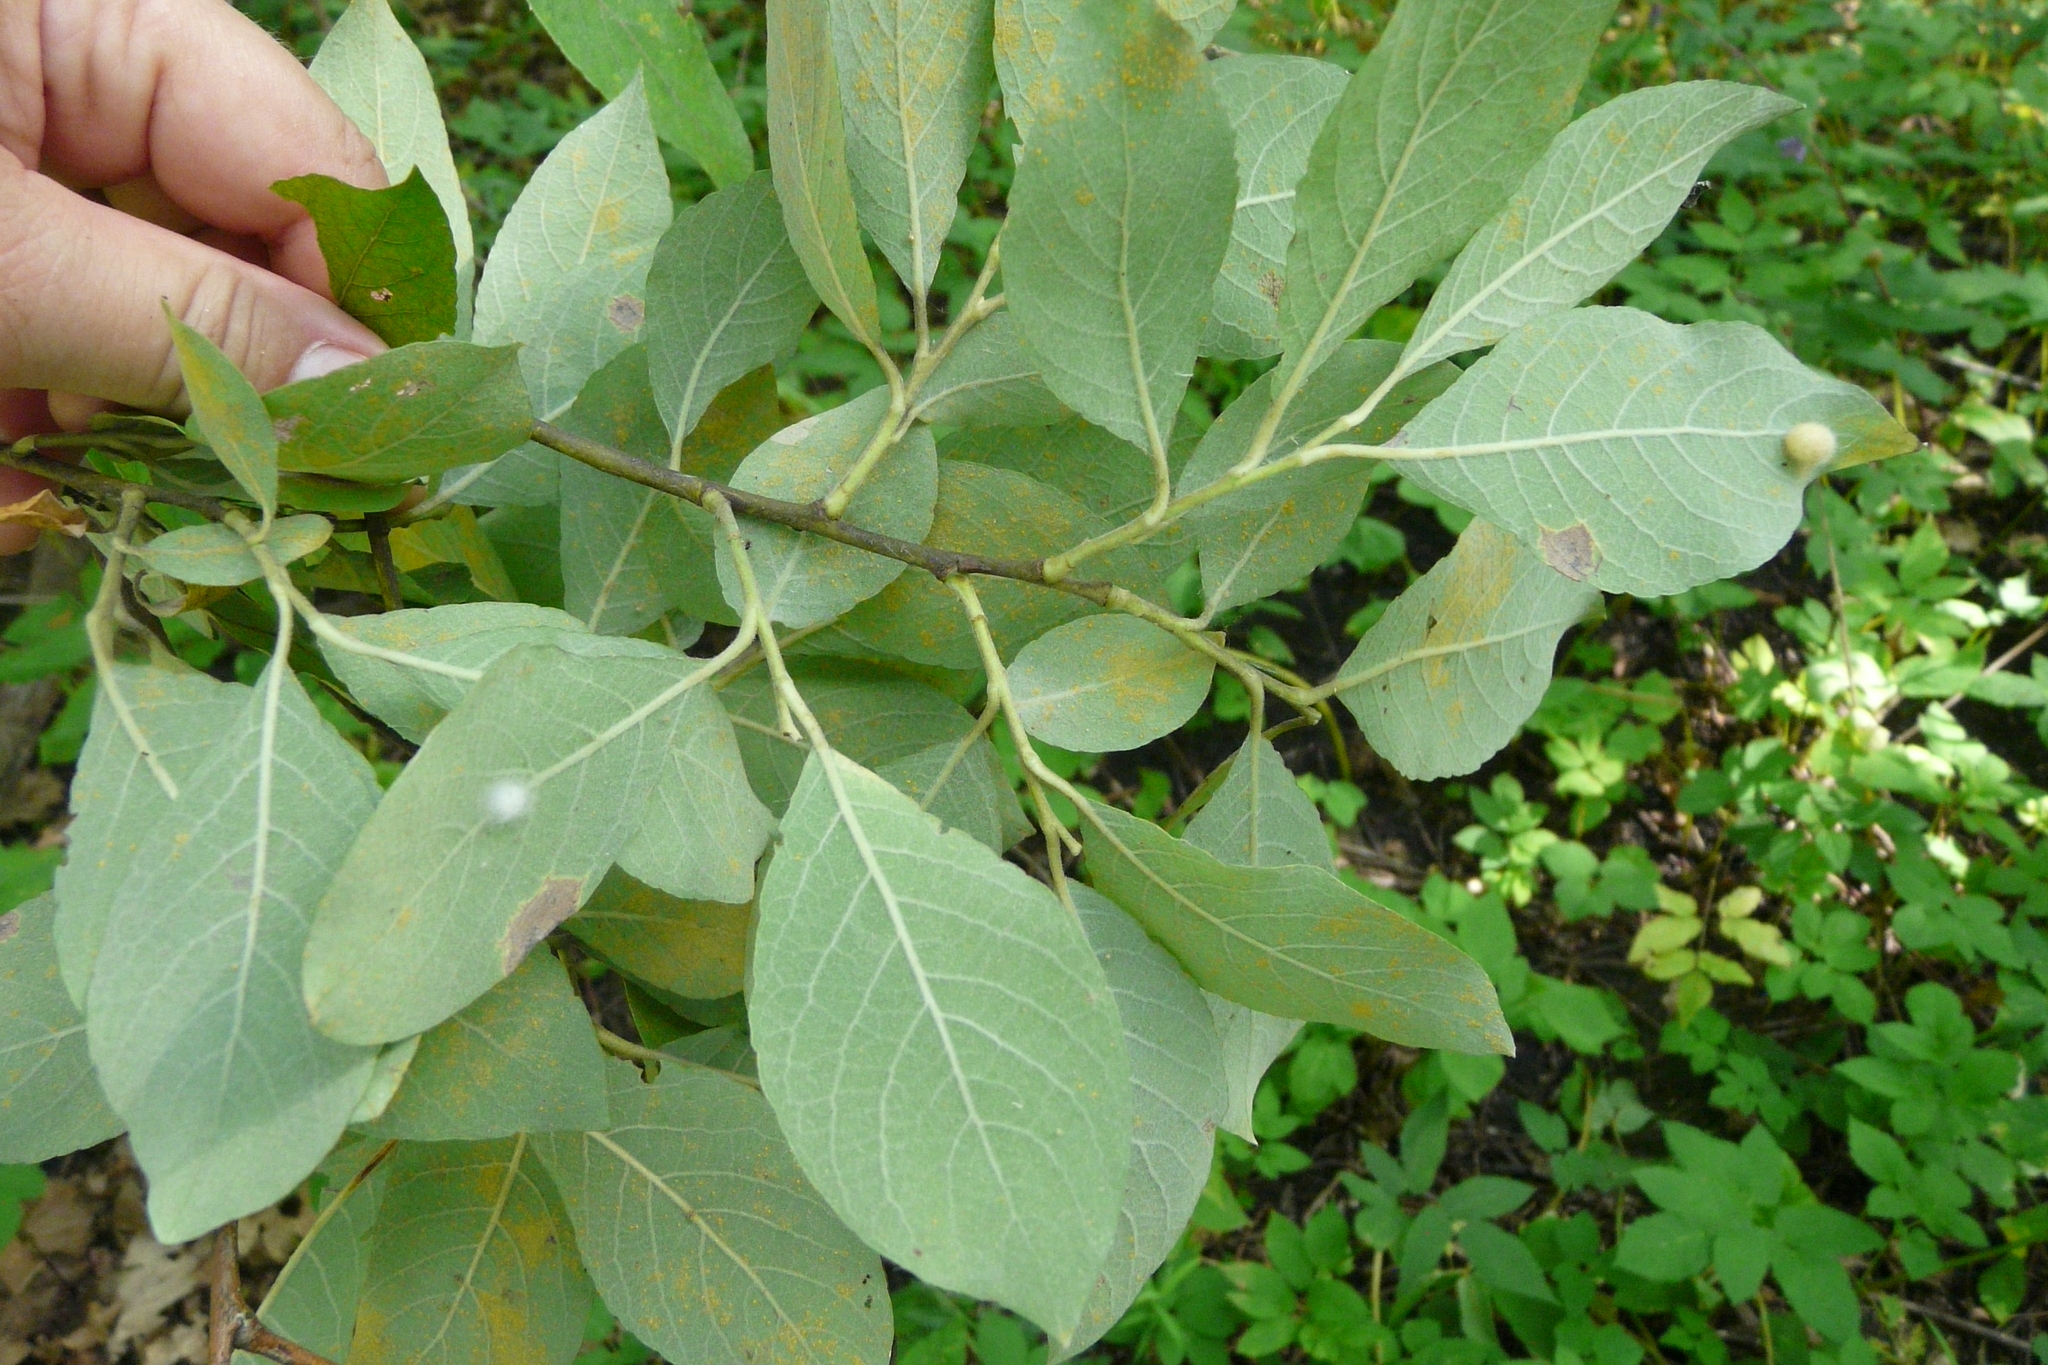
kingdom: Plantae
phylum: Tracheophyta
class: Magnoliopsida
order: Malpighiales
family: Salicaceae
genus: Salix
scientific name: Salix caprea
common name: Goat willow
